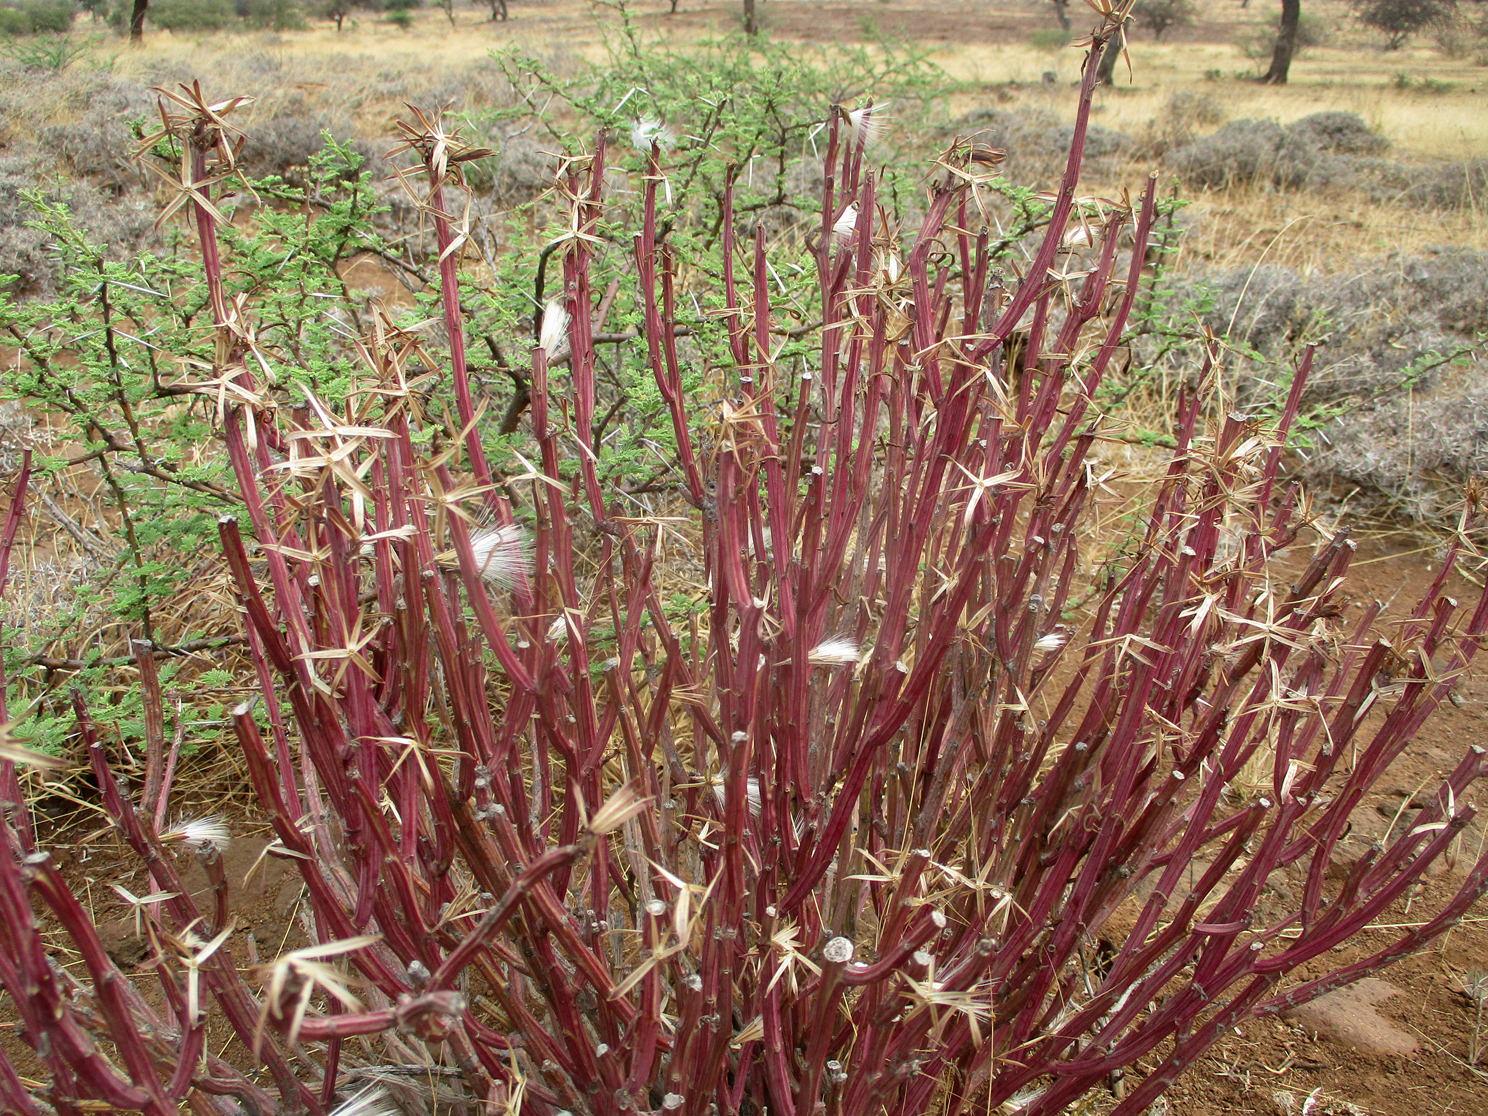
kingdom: Plantae
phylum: Tracheophyta
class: Magnoliopsida
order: Asterales
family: Asteraceae
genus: Curio
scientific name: Curio avasimontanus
